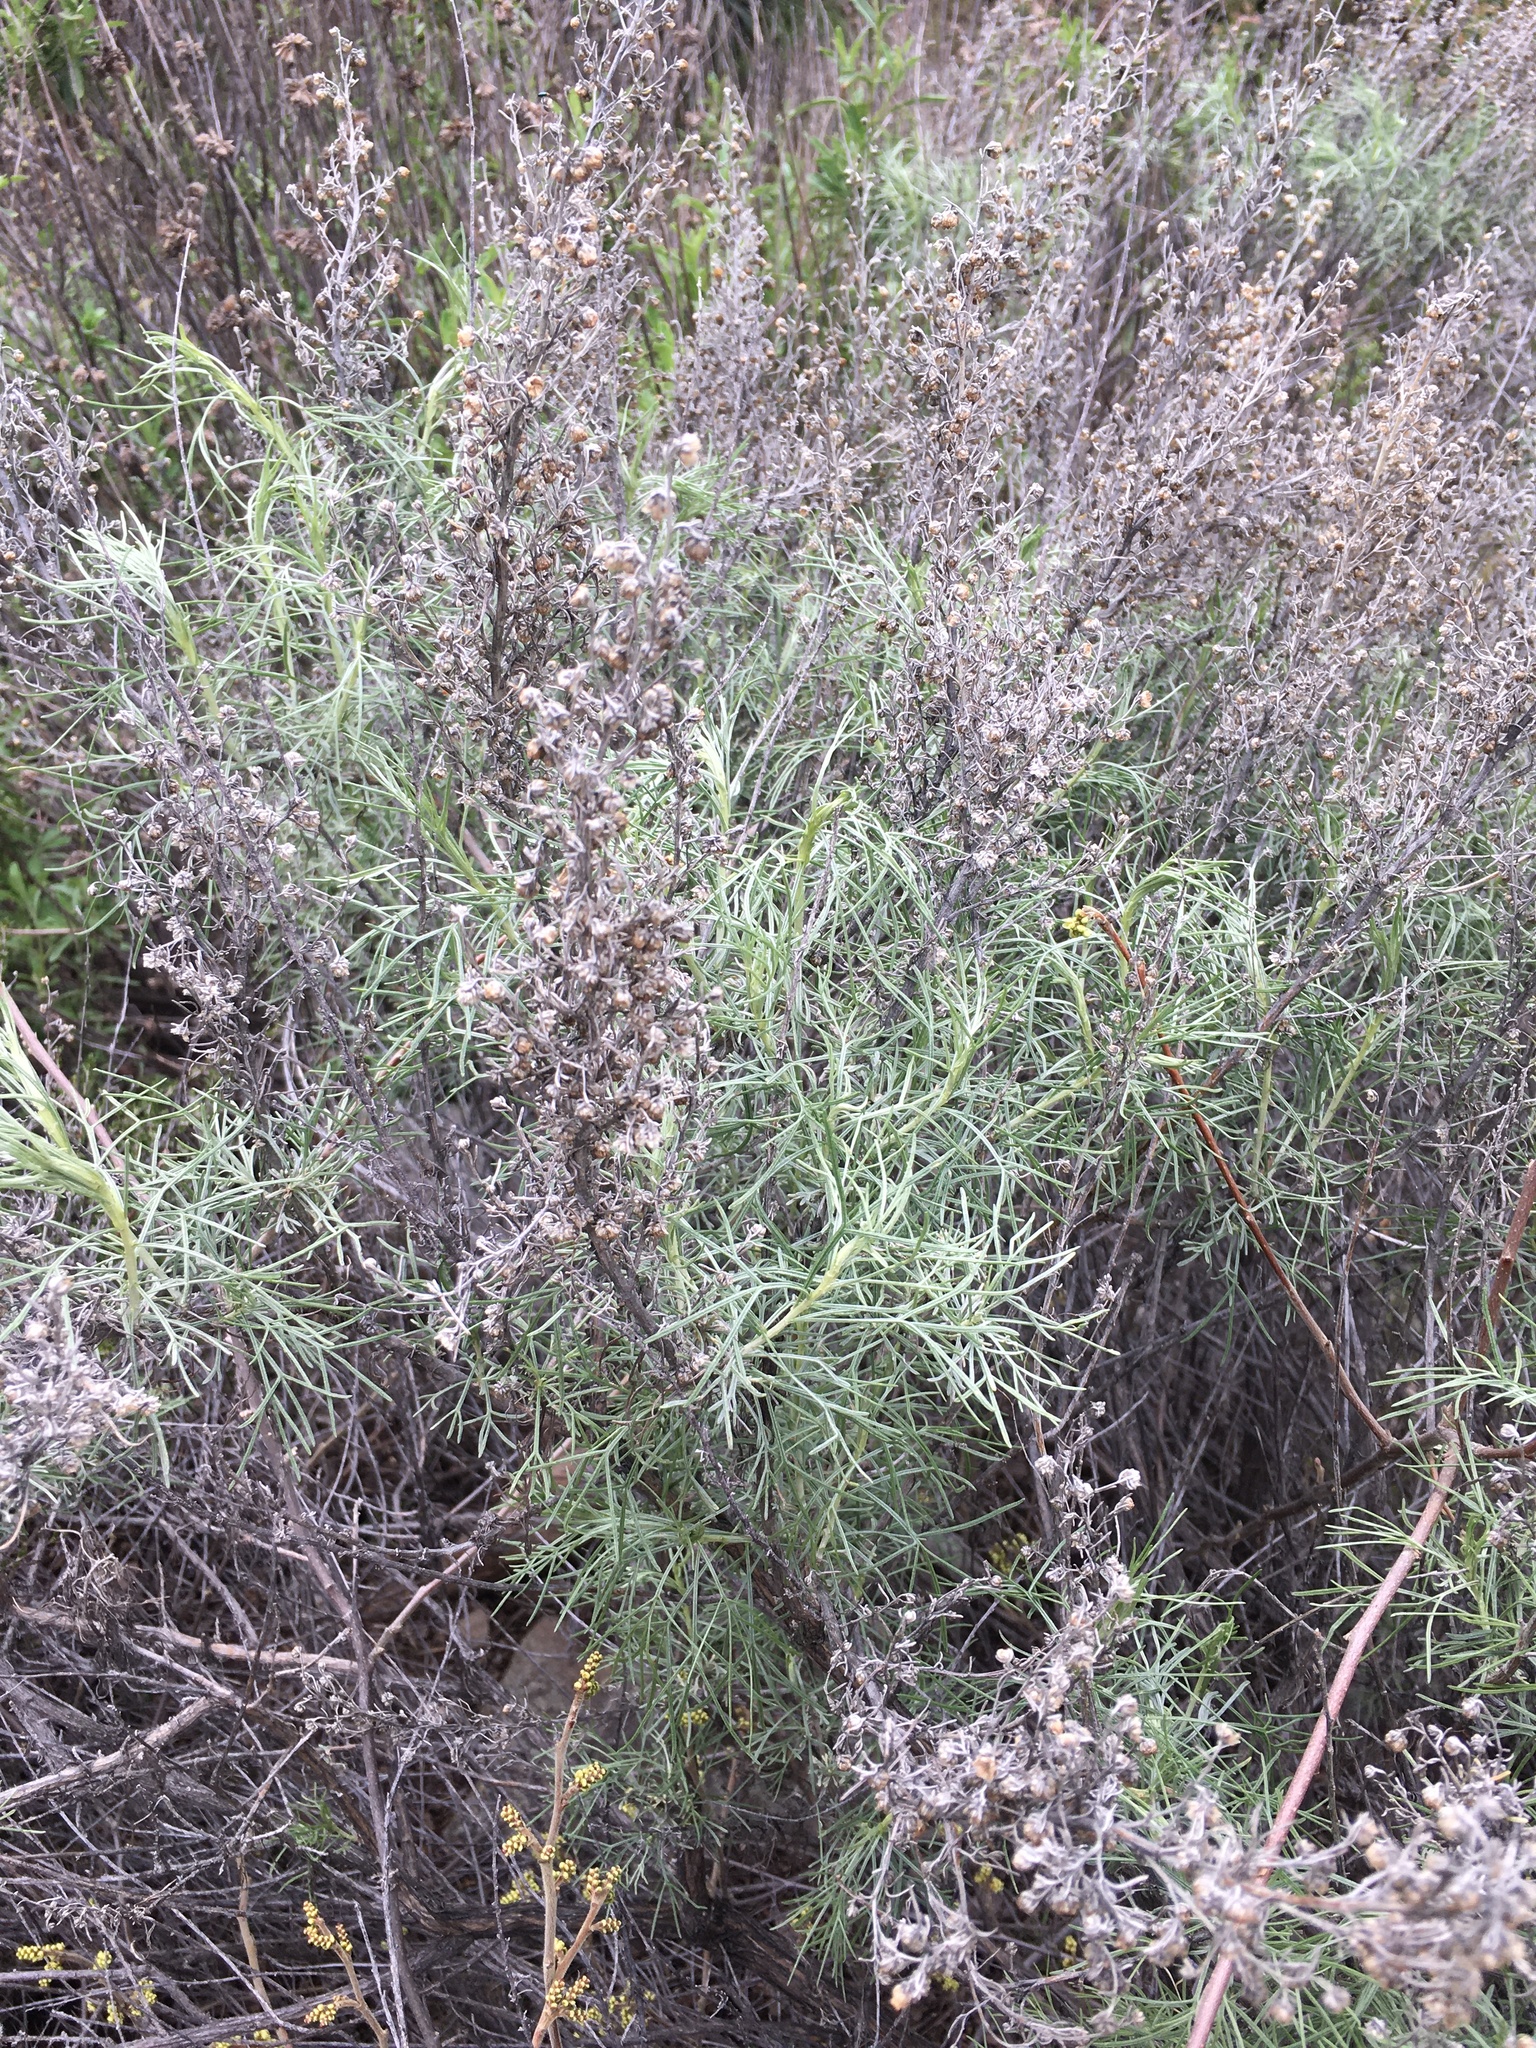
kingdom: Plantae
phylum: Tracheophyta
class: Magnoliopsida
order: Asterales
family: Asteraceae
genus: Artemisia
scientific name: Artemisia californica
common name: California sagebrush
